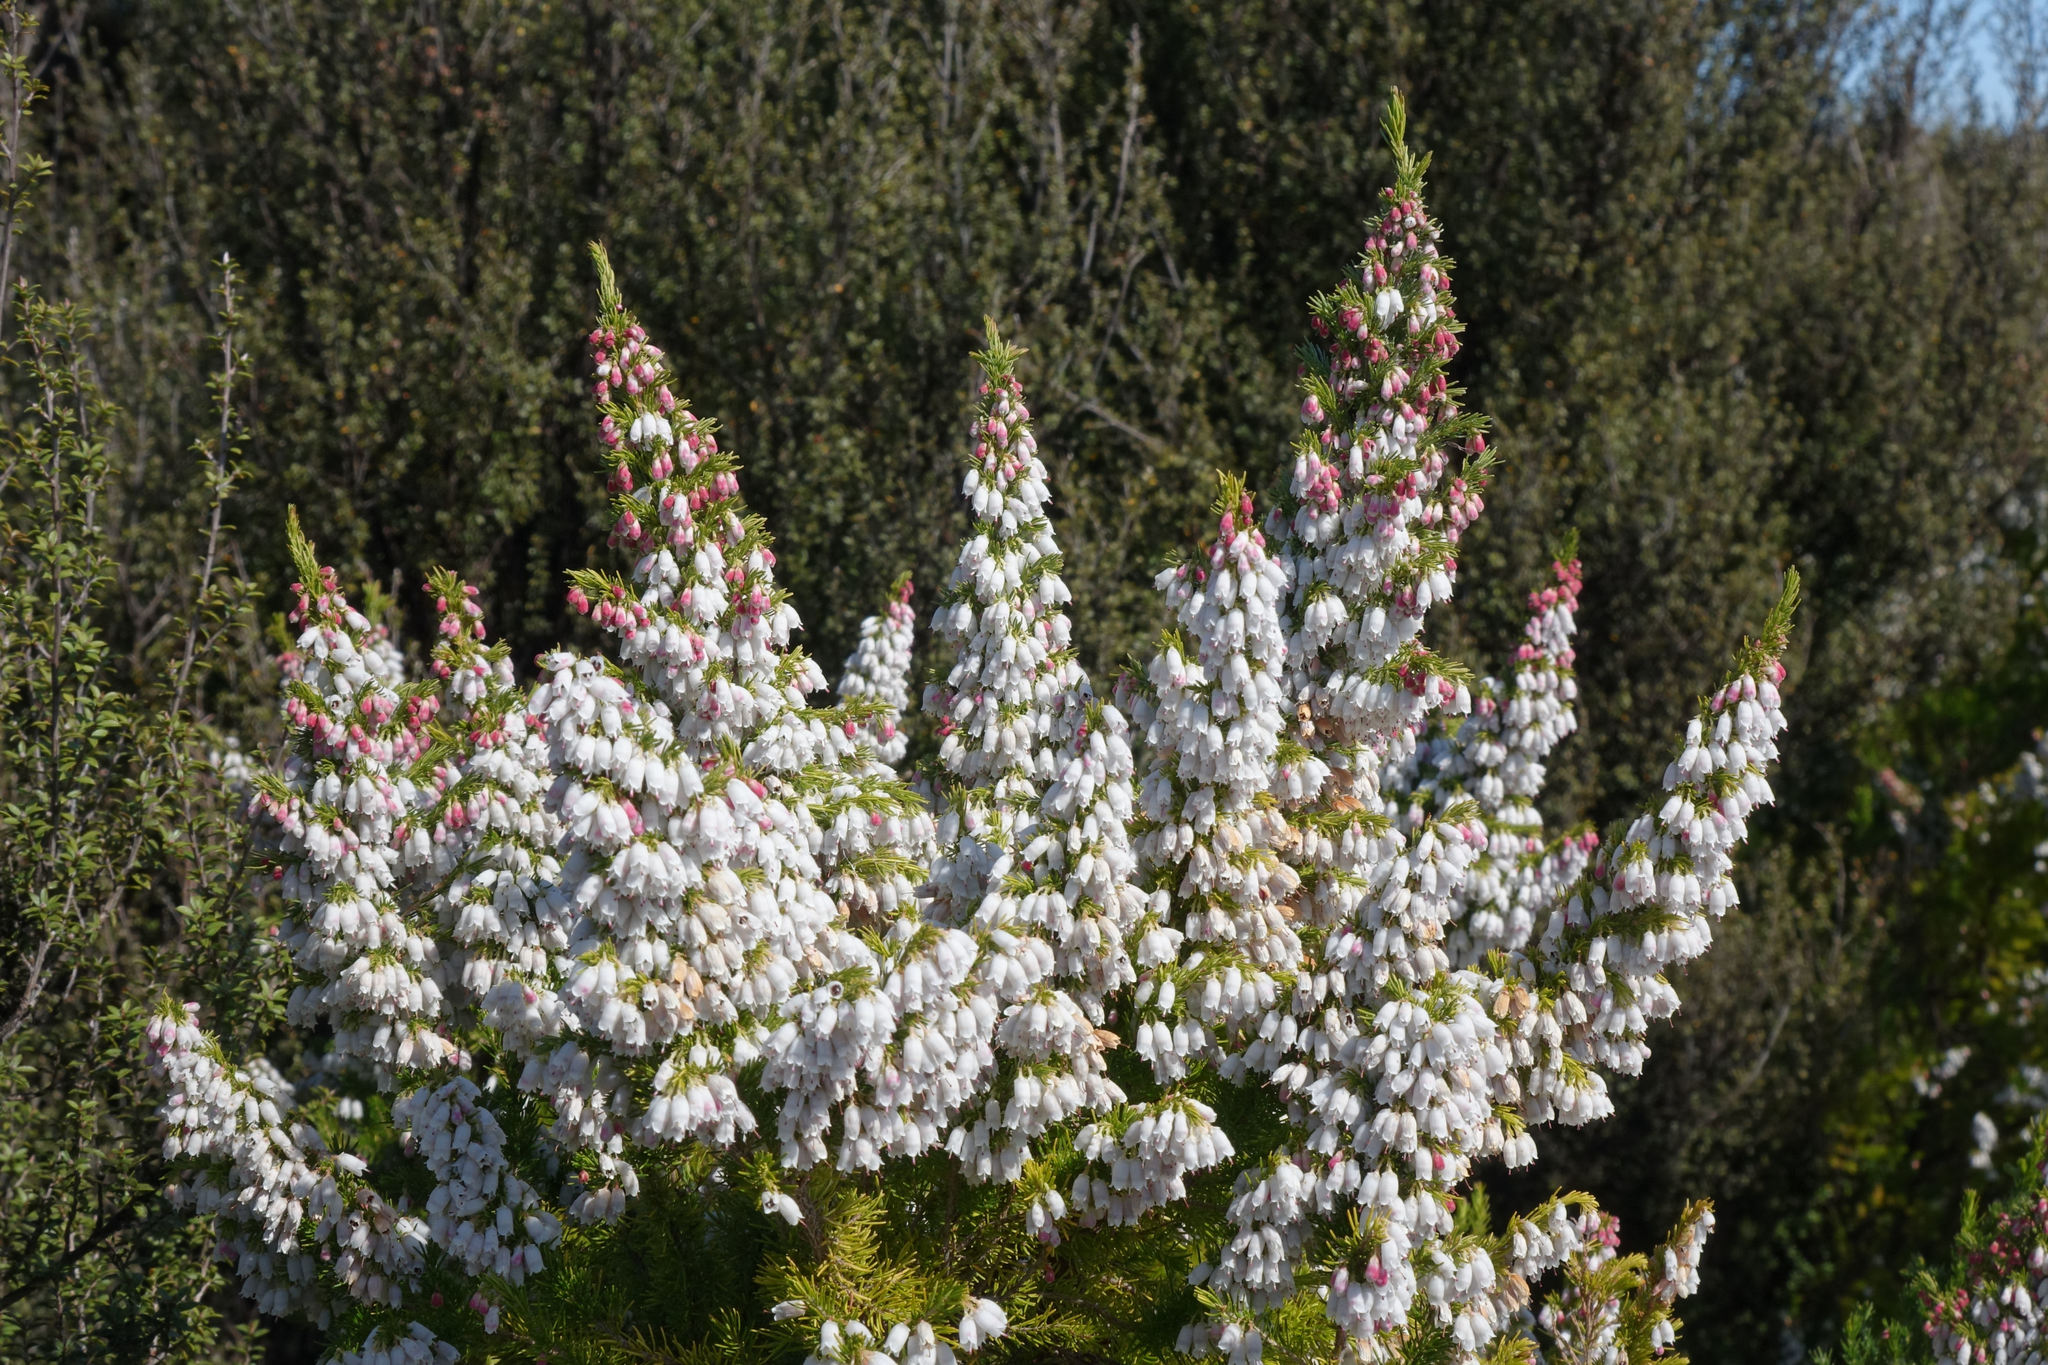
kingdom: Plantae
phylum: Tracheophyta
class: Magnoliopsida
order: Ericales
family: Ericaceae
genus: Erica
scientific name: Erica lusitanica
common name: Spanish heath
